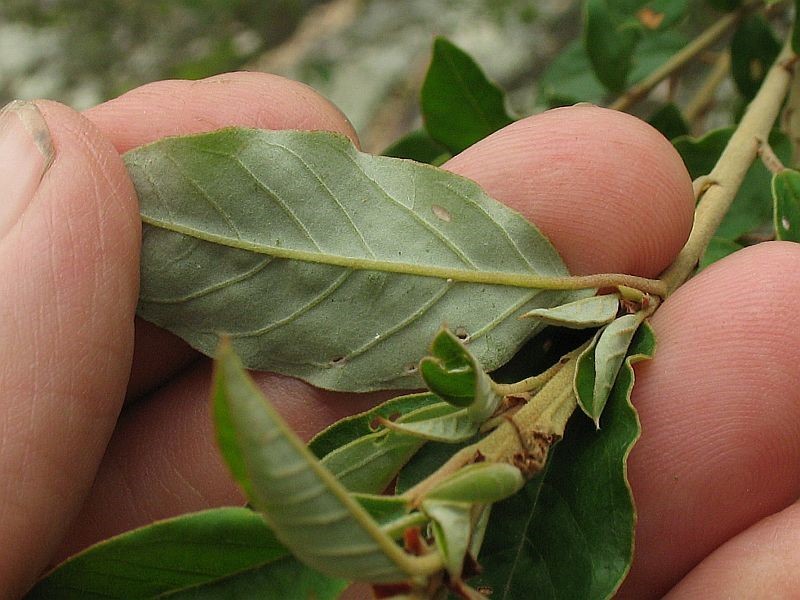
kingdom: Plantae
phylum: Tracheophyta
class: Magnoliopsida
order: Rosales
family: Rhamnaceae
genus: Pomaderris
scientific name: Pomaderris pilifera
